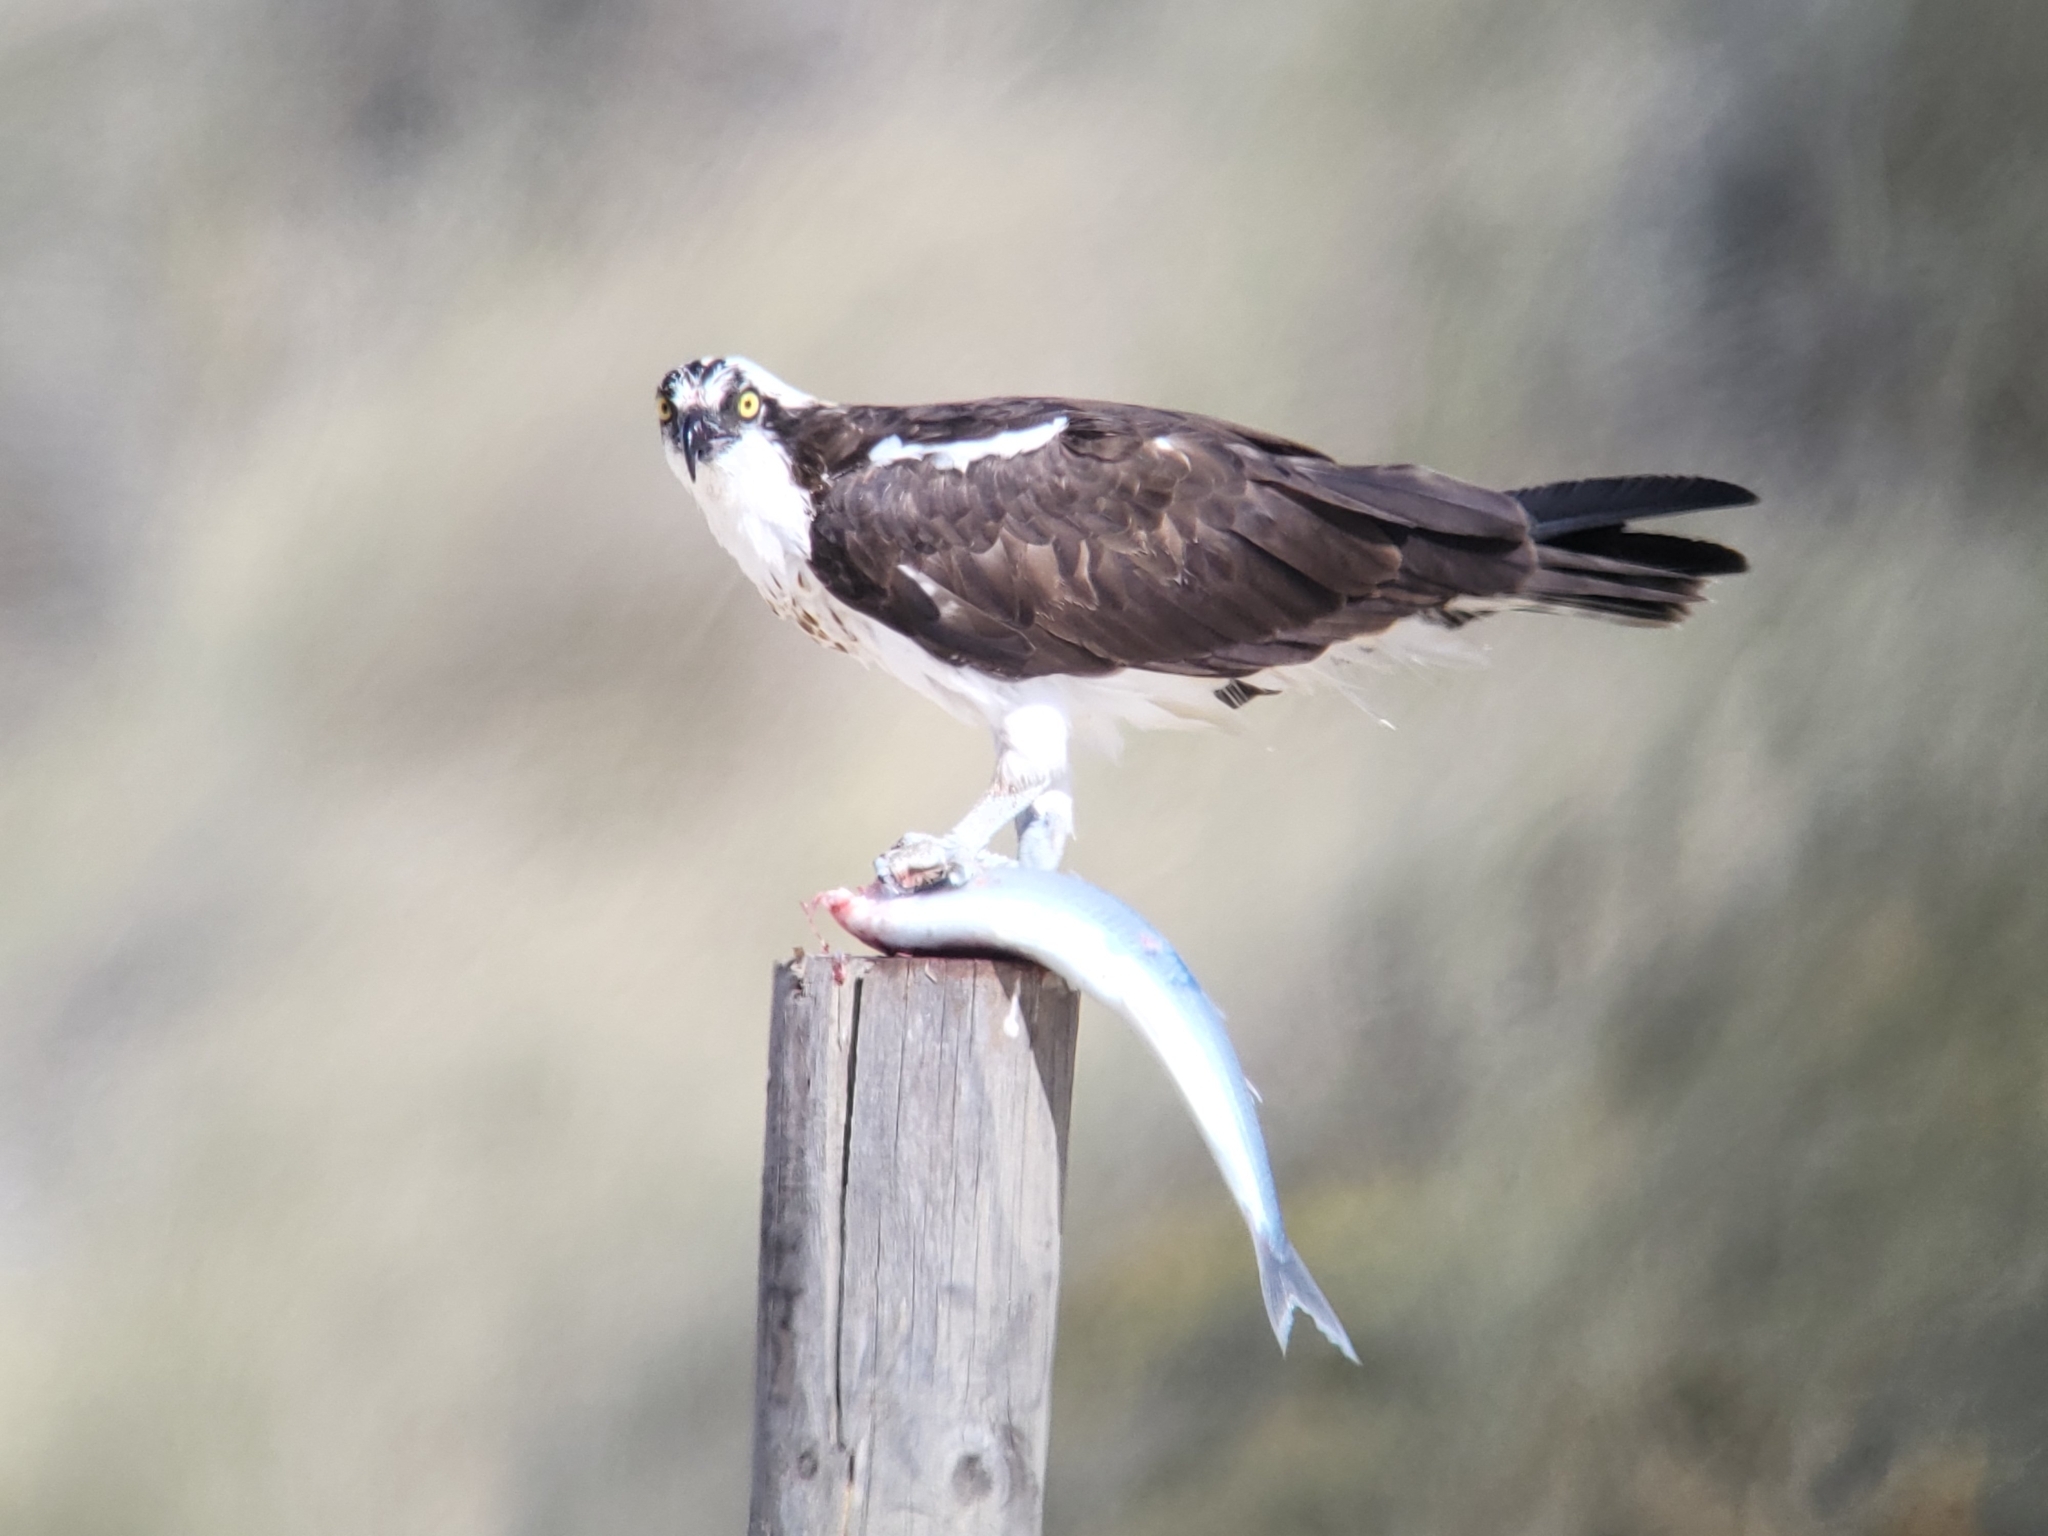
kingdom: Animalia
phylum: Chordata
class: Aves
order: Accipitriformes
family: Pandionidae
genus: Pandion
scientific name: Pandion haliaetus
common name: Osprey
